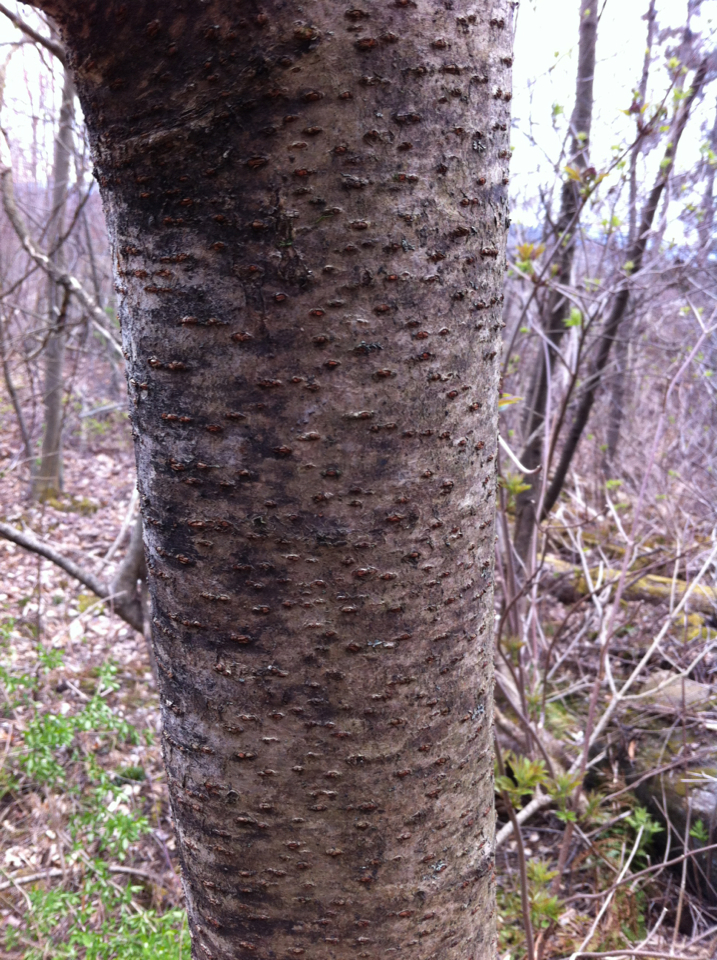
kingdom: Plantae
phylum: Tracheophyta
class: Magnoliopsida
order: Sapindales
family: Anacardiaceae
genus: Rhus
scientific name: Rhus typhina
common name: Staghorn sumac
